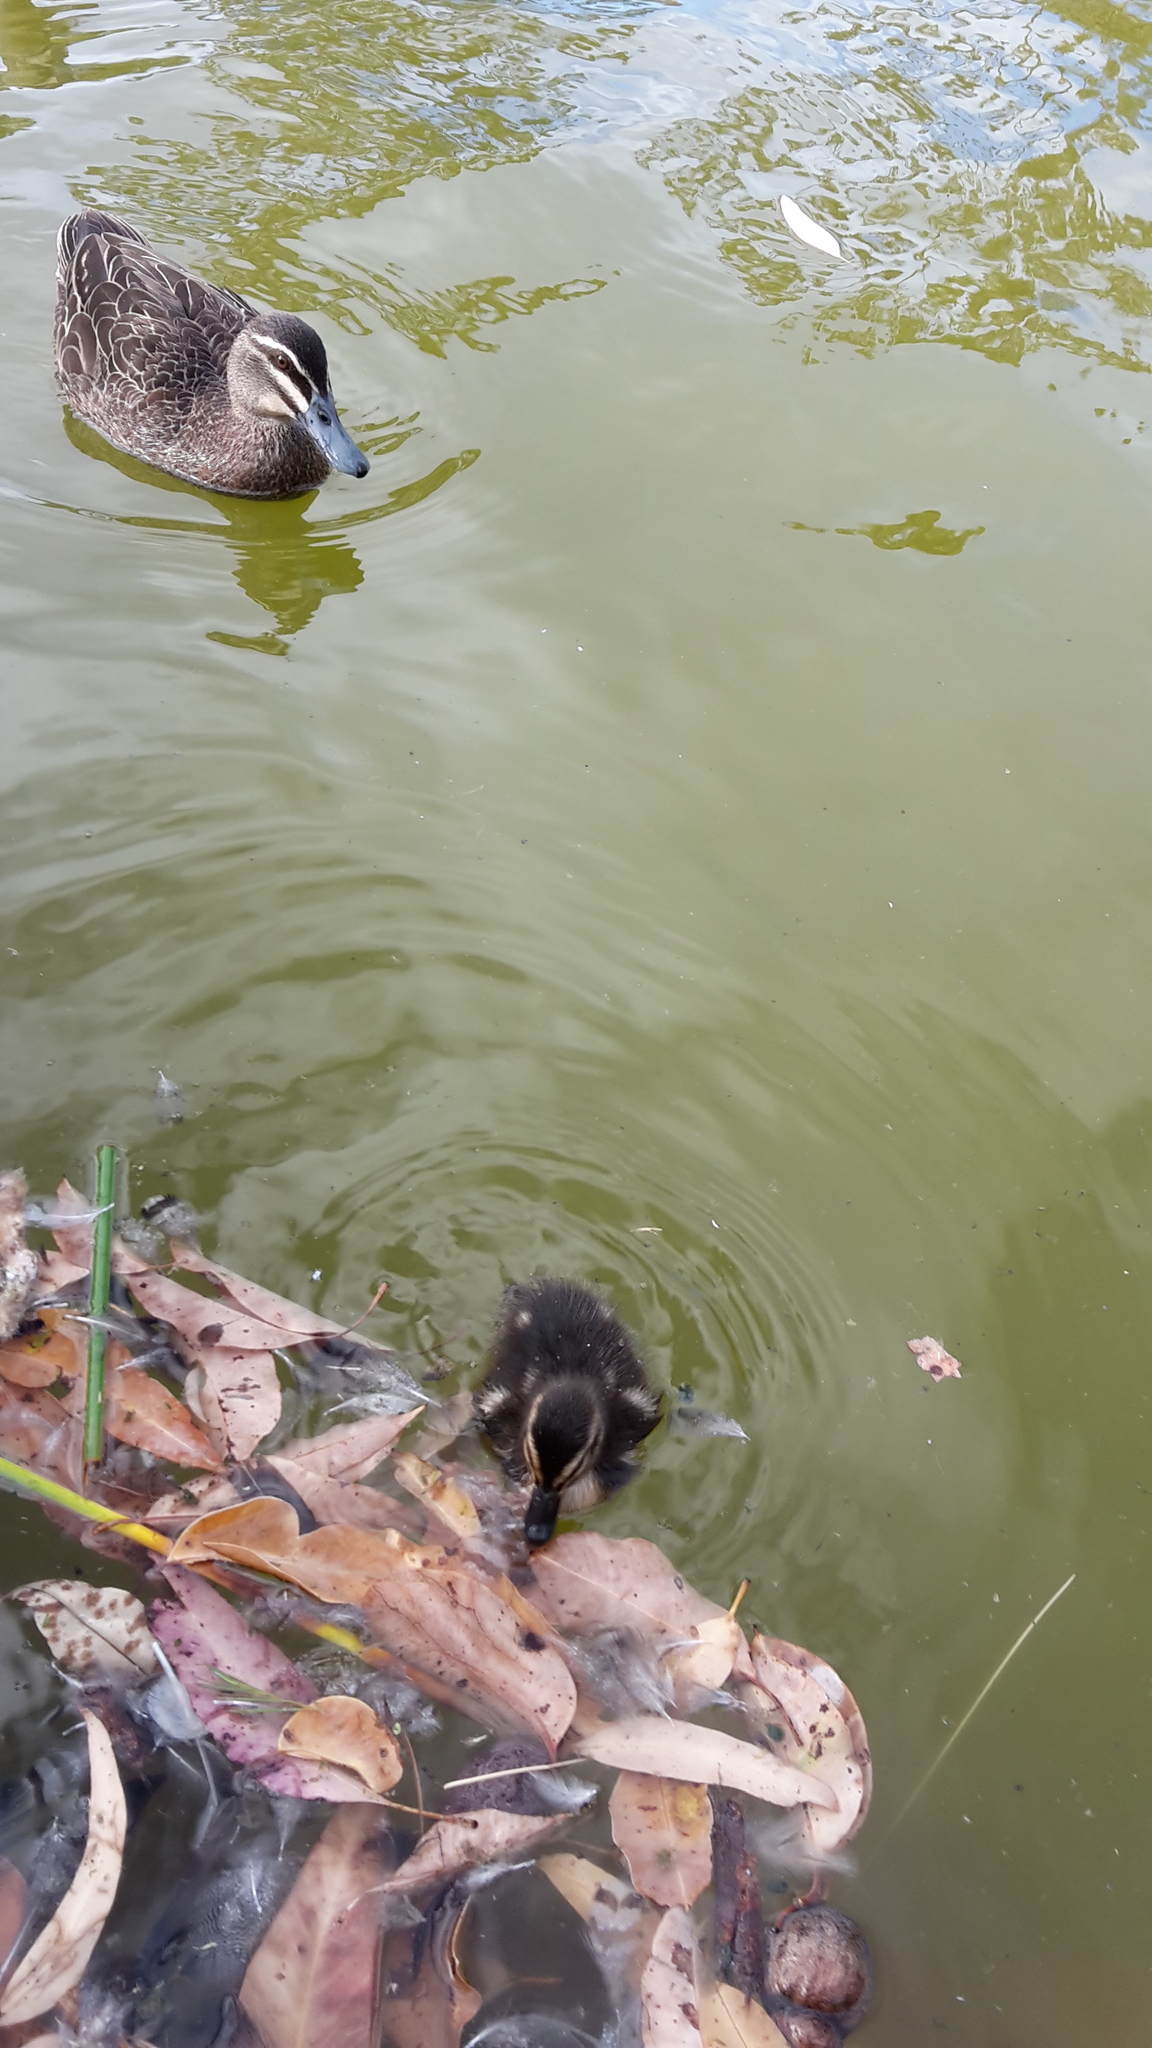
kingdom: Animalia
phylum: Chordata
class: Aves
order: Anseriformes
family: Anatidae
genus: Anas
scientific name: Anas superciliosa
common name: Pacific black duck
